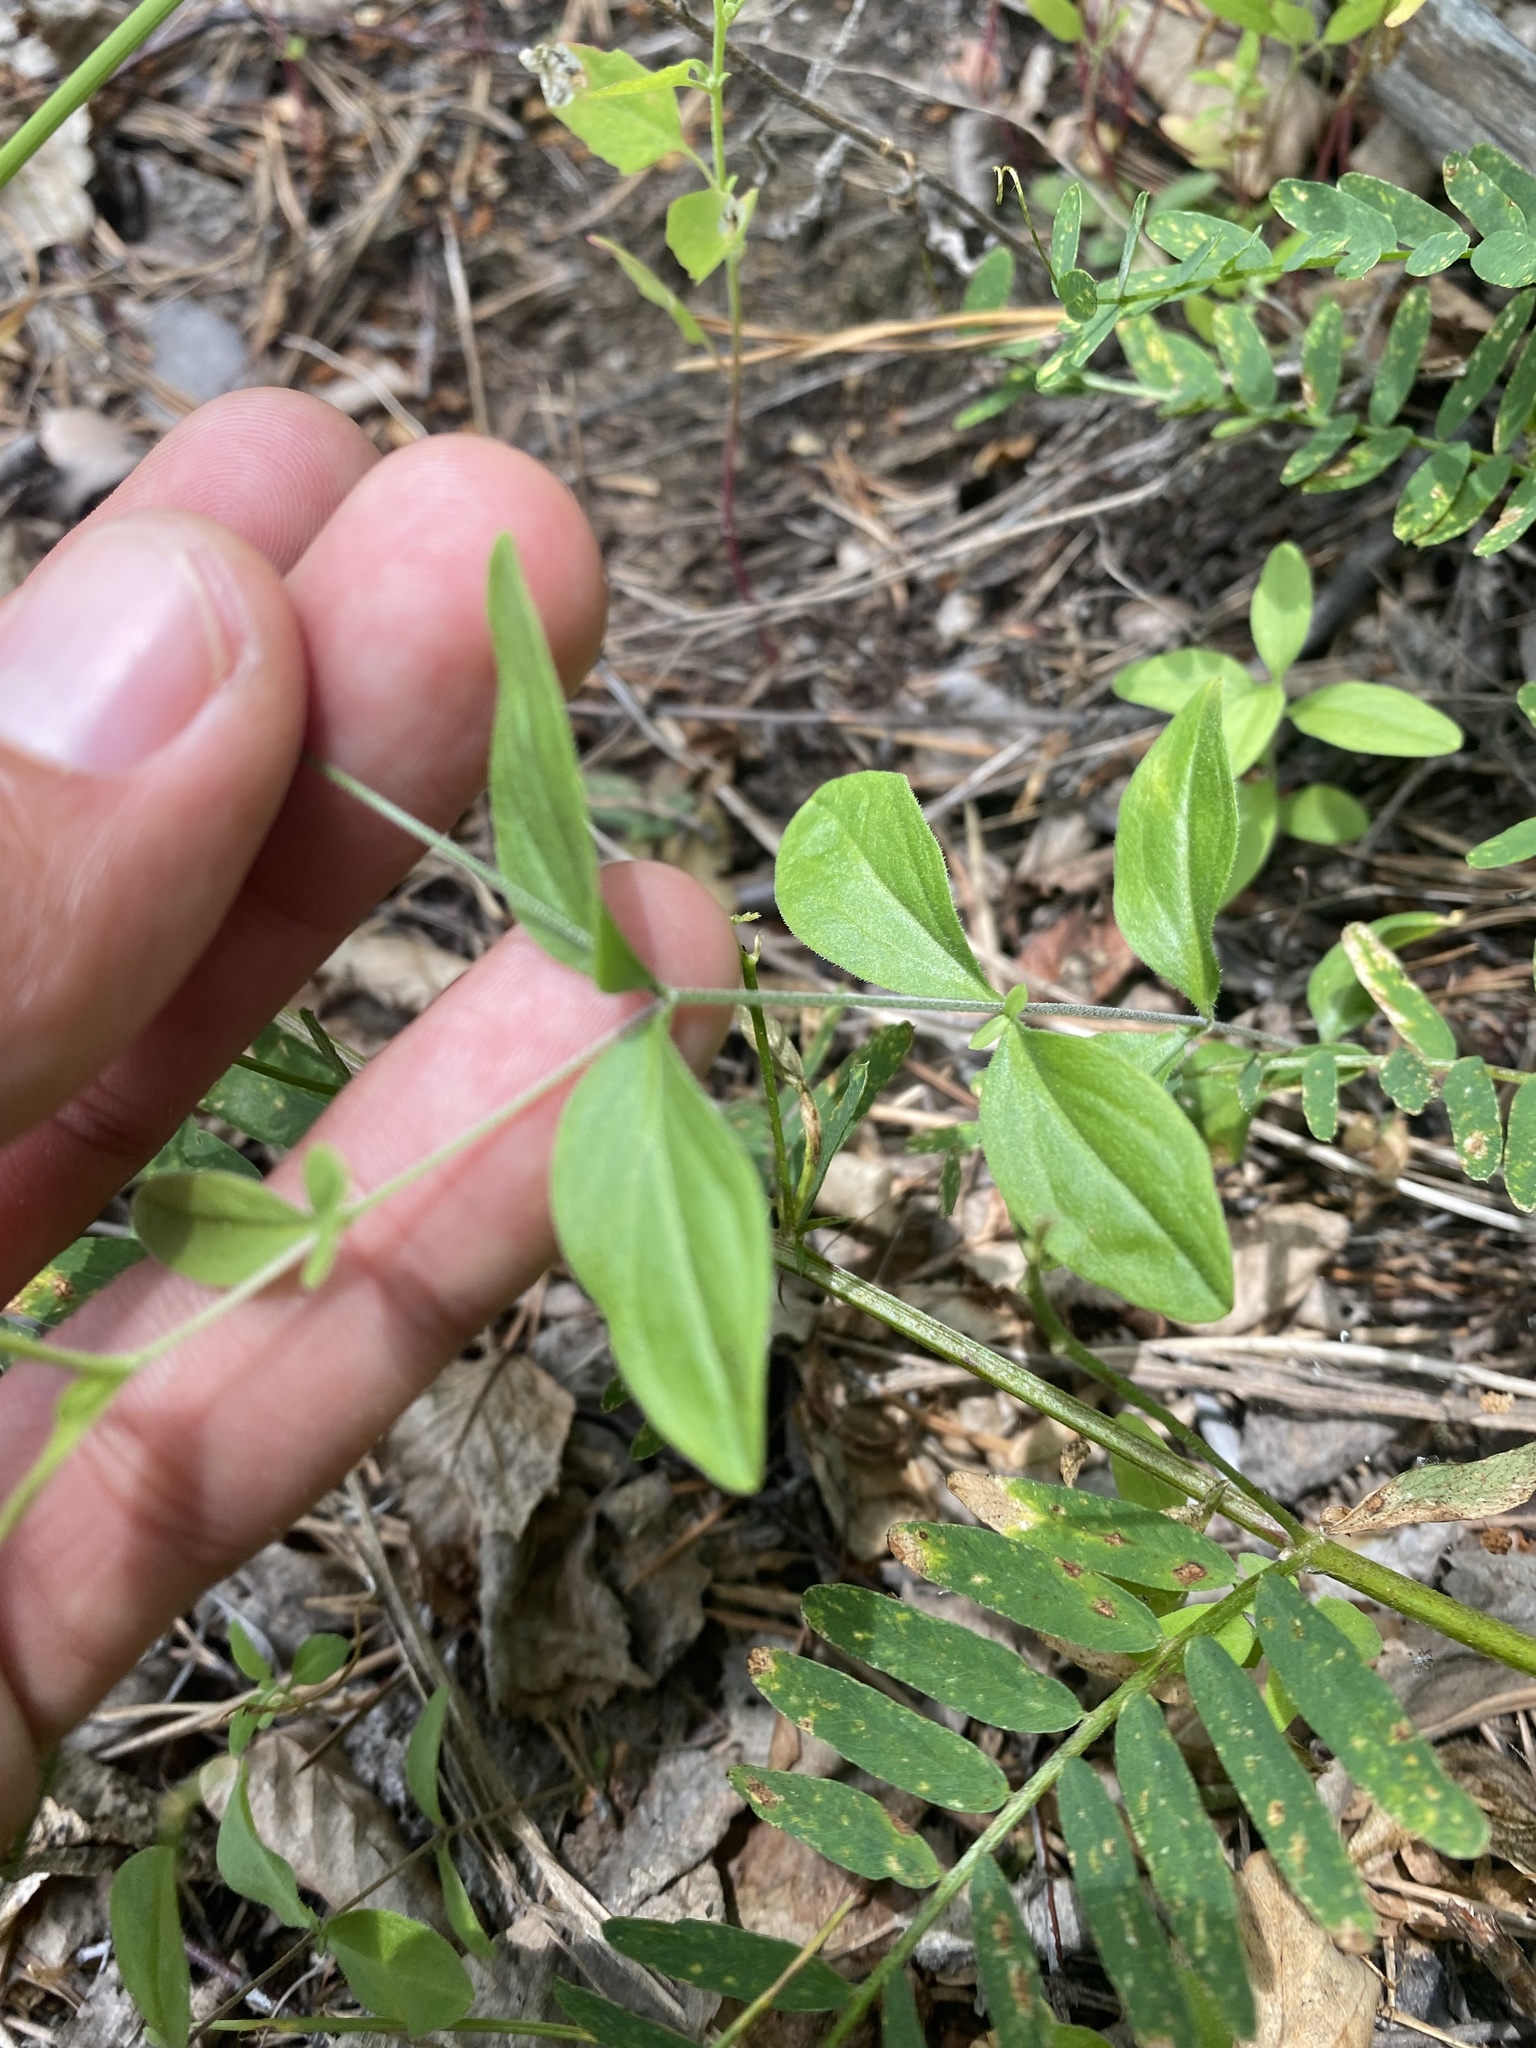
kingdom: Plantae
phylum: Tracheophyta
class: Magnoliopsida
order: Caryophyllales
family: Caryophyllaceae
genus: Moehringia
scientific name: Moehringia lateriflora
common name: Blunt-leaved sandwort
